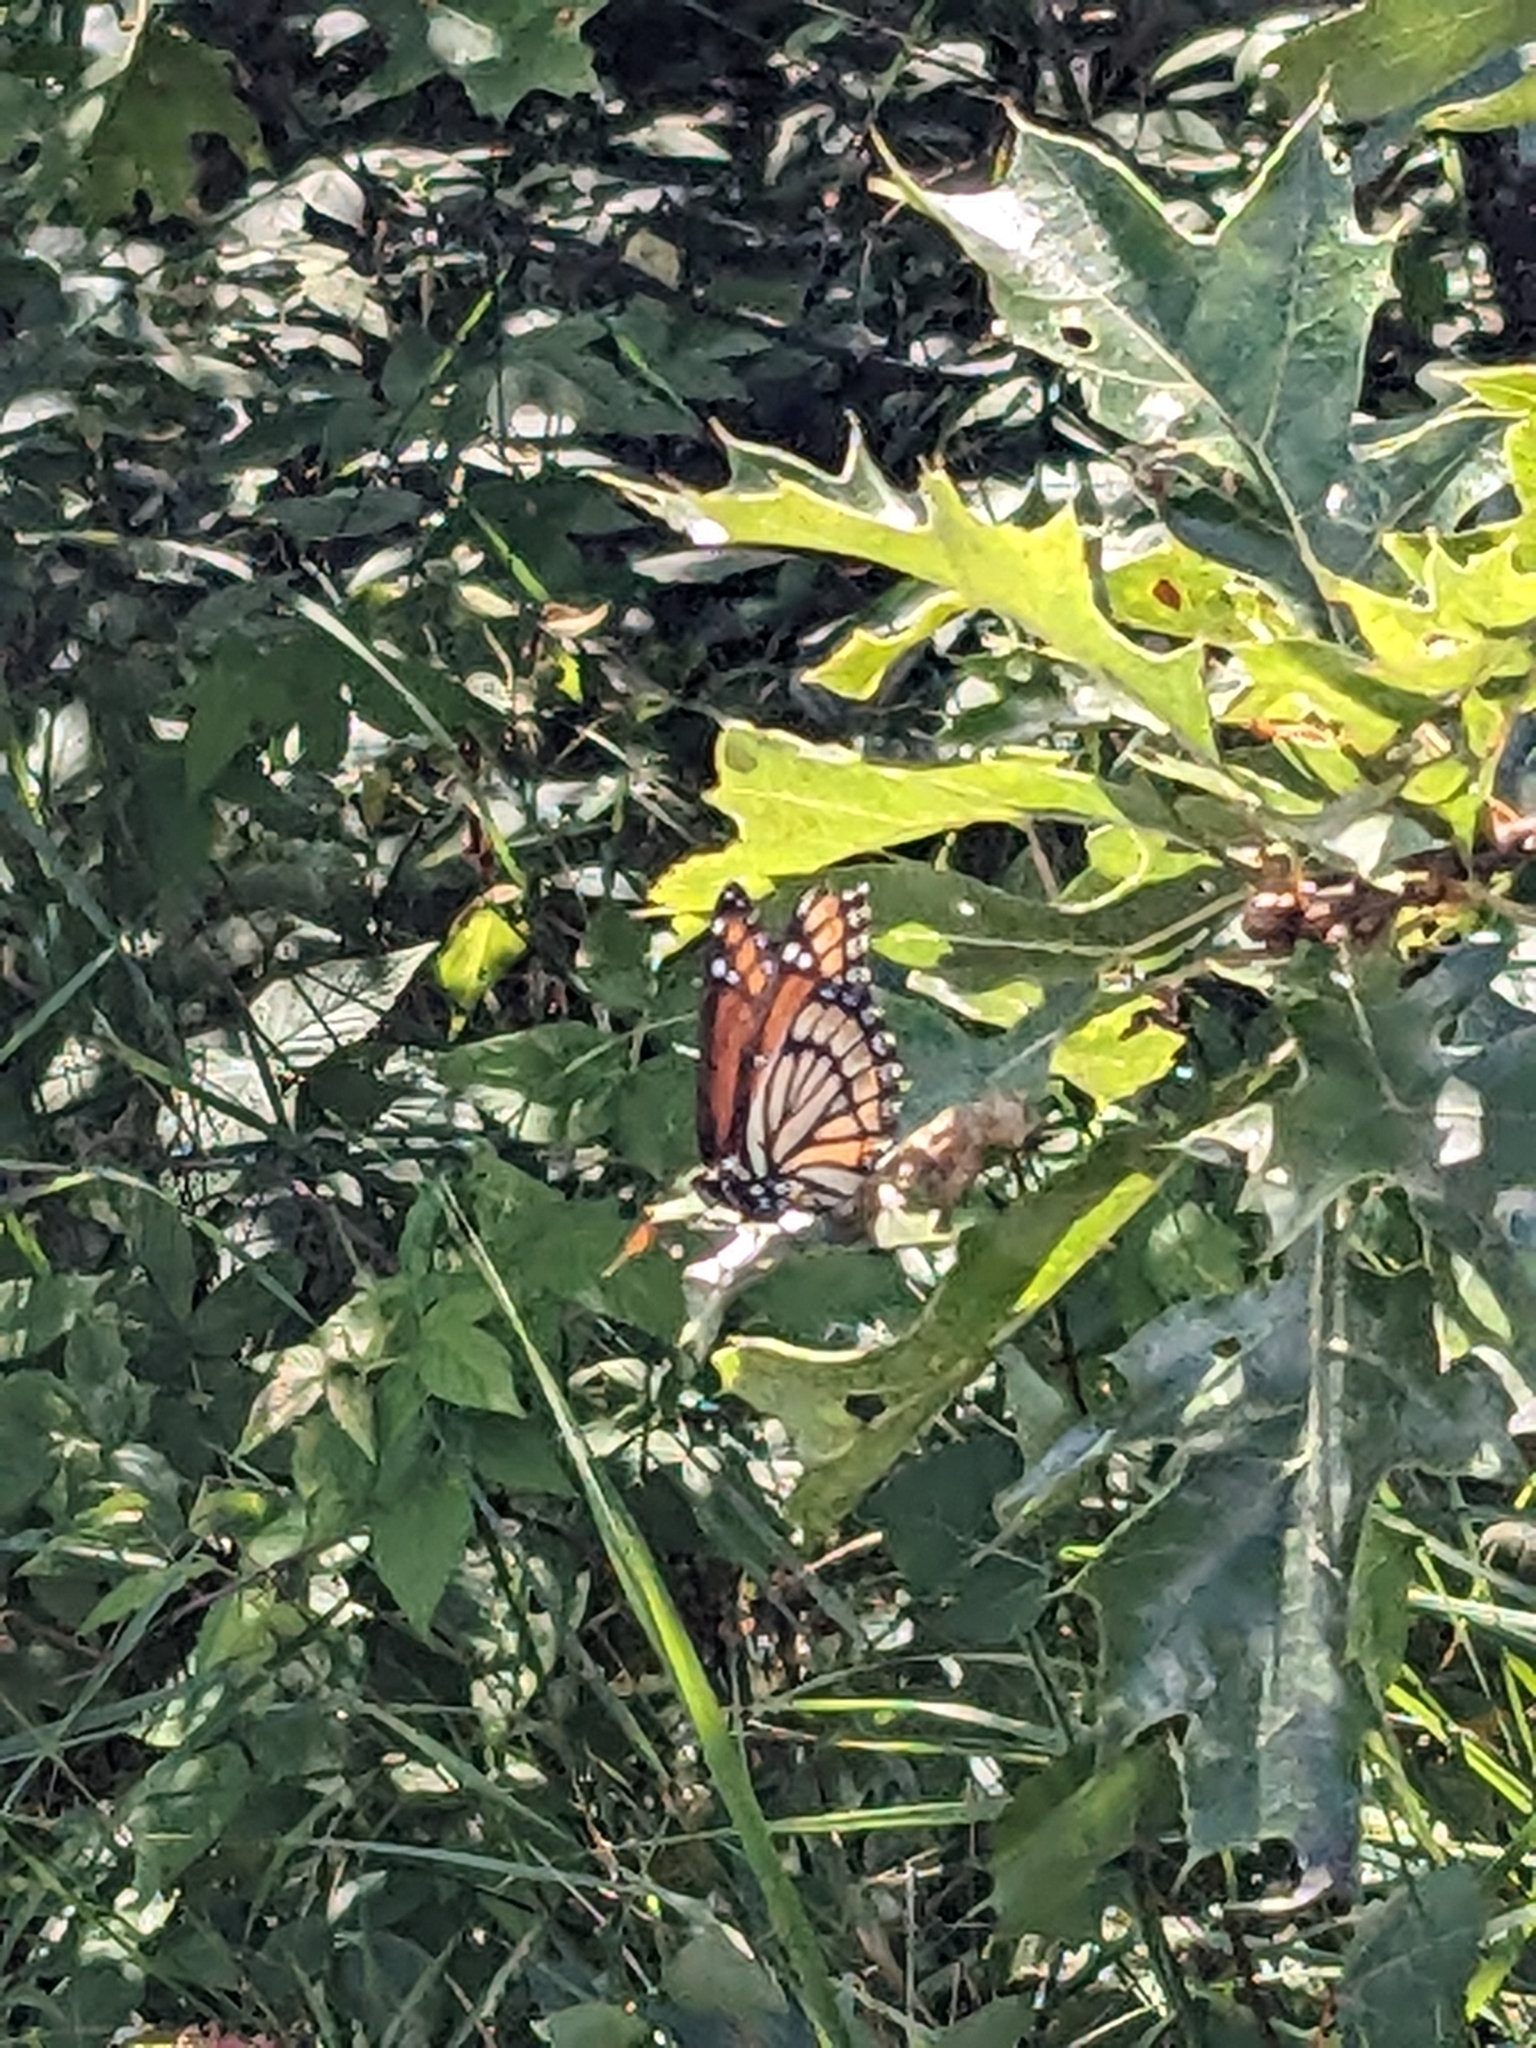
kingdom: Animalia
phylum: Arthropoda
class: Insecta
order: Lepidoptera
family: Nymphalidae
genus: Limenitis
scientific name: Limenitis archippus
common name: Viceroy
